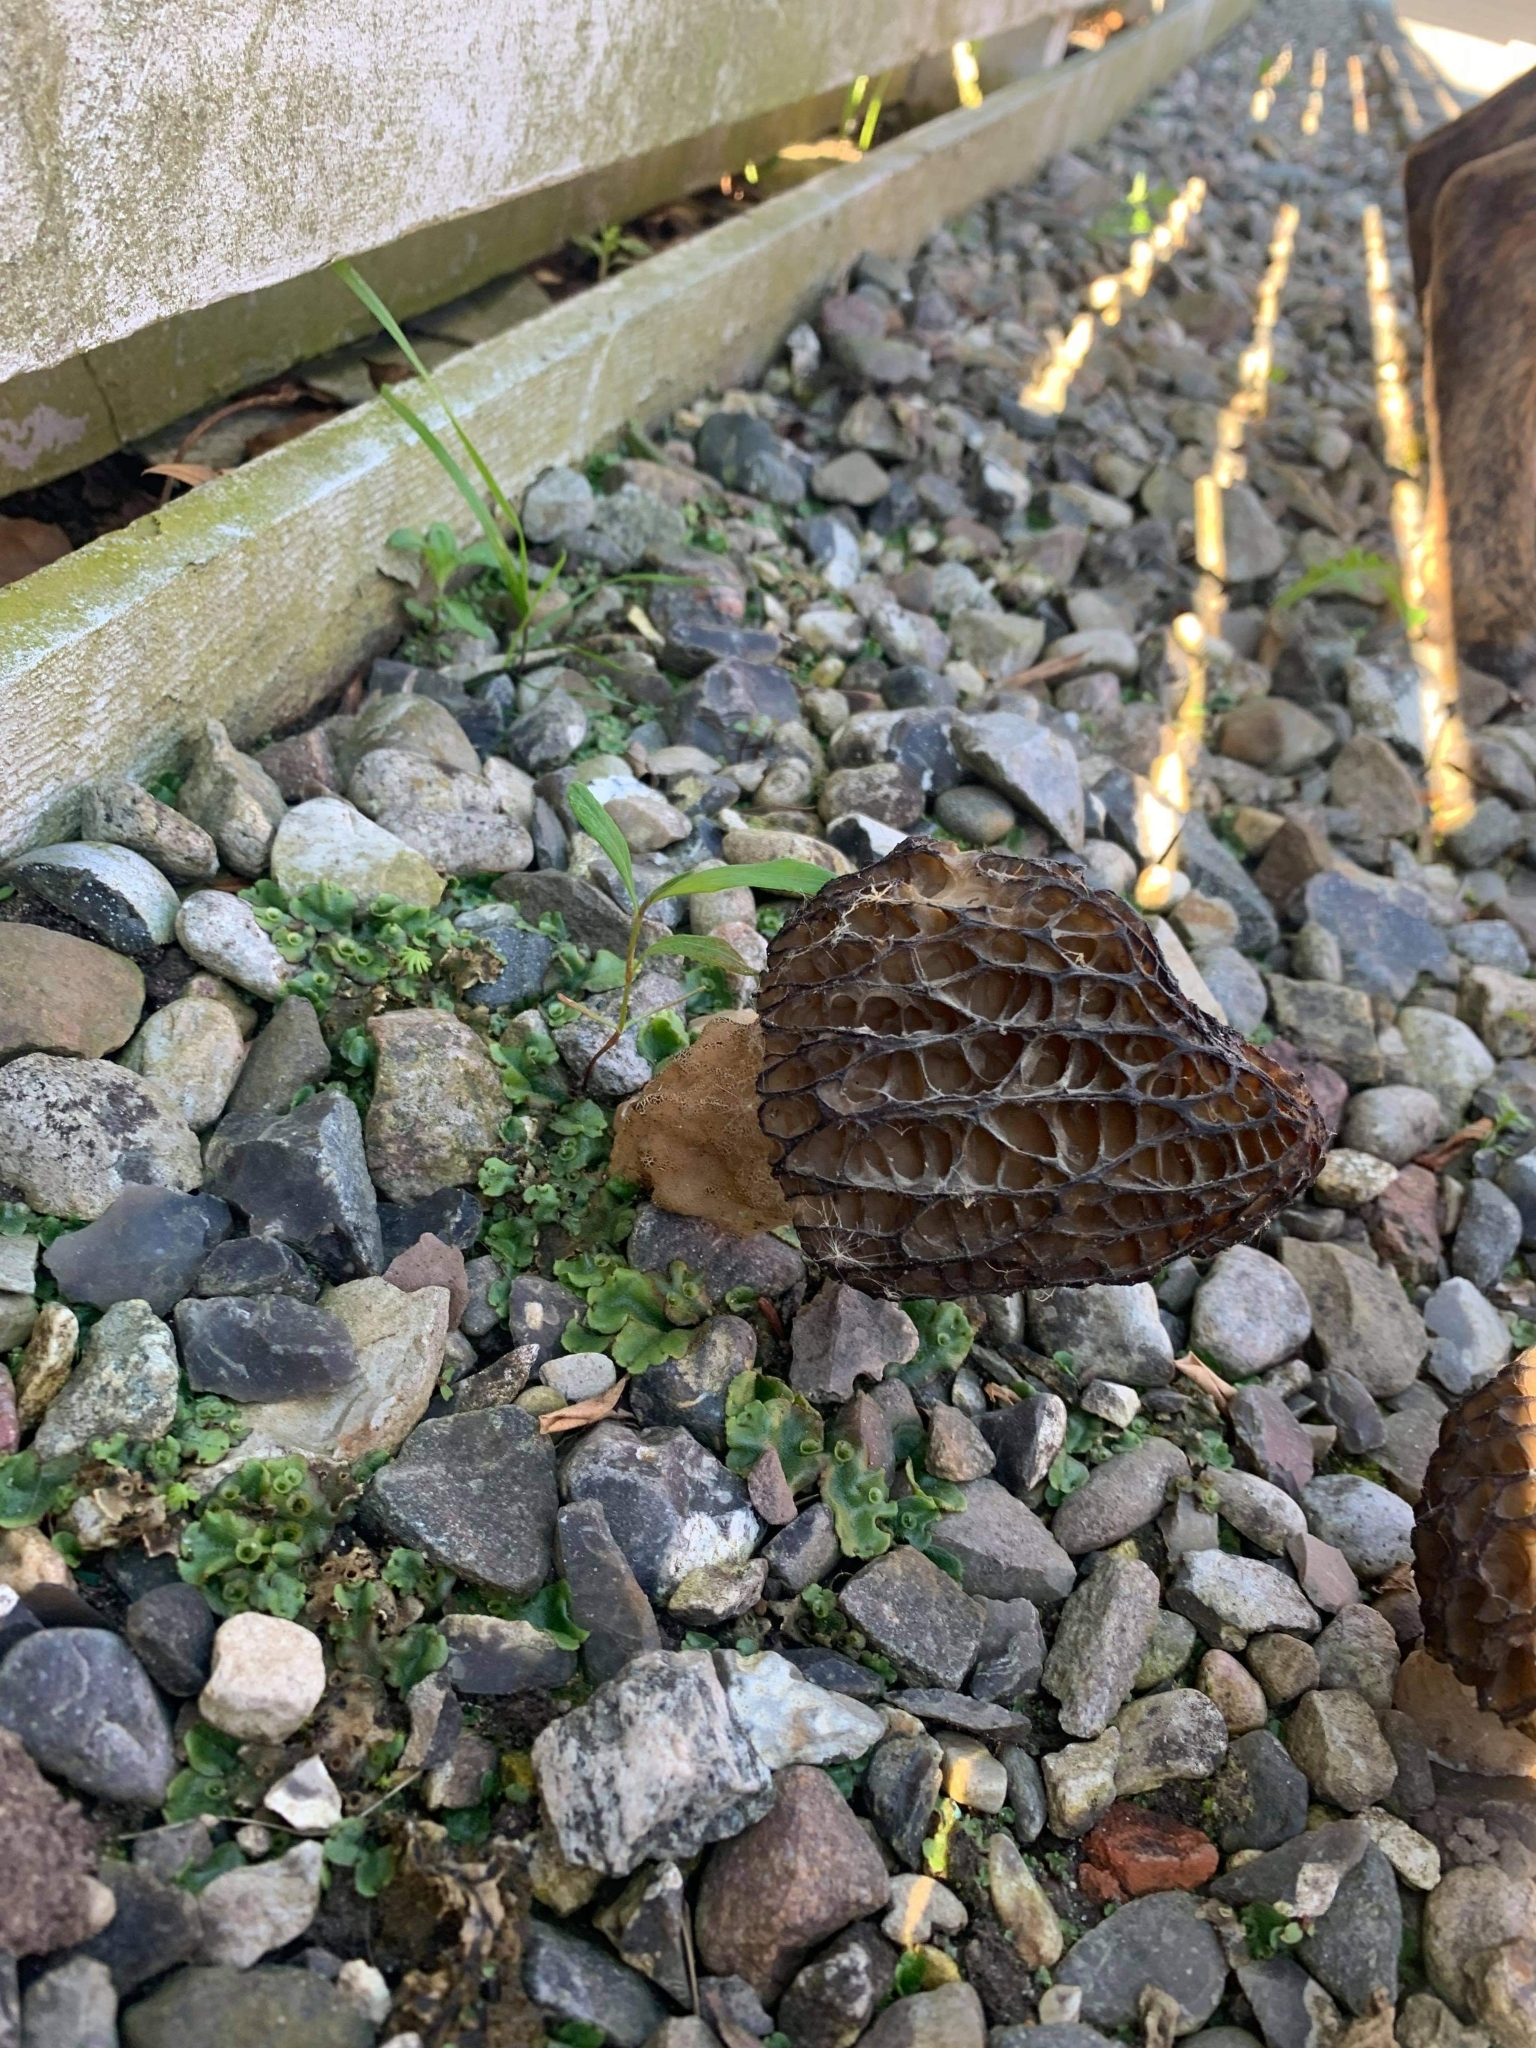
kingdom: Fungi
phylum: Ascomycota
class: Pezizomycetes
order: Pezizales
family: Morchellaceae
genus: Morchella
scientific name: Morchella elata
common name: Black morel
